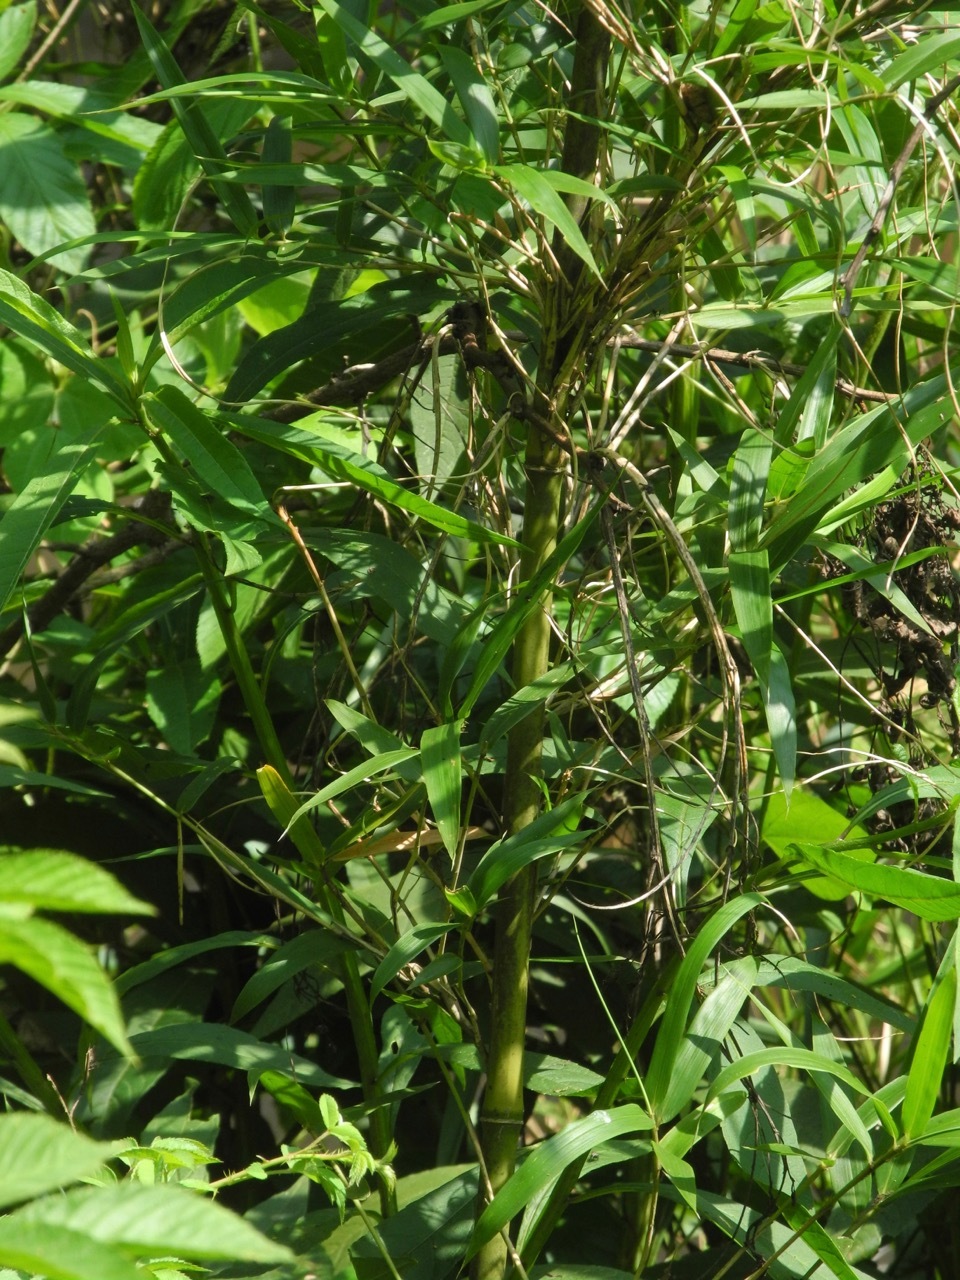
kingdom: Plantae
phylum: Tracheophyta
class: Liliopsida
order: Poales
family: Poaceae
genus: Arundinaria
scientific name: Arundinaria gigantea
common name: Giant cane
